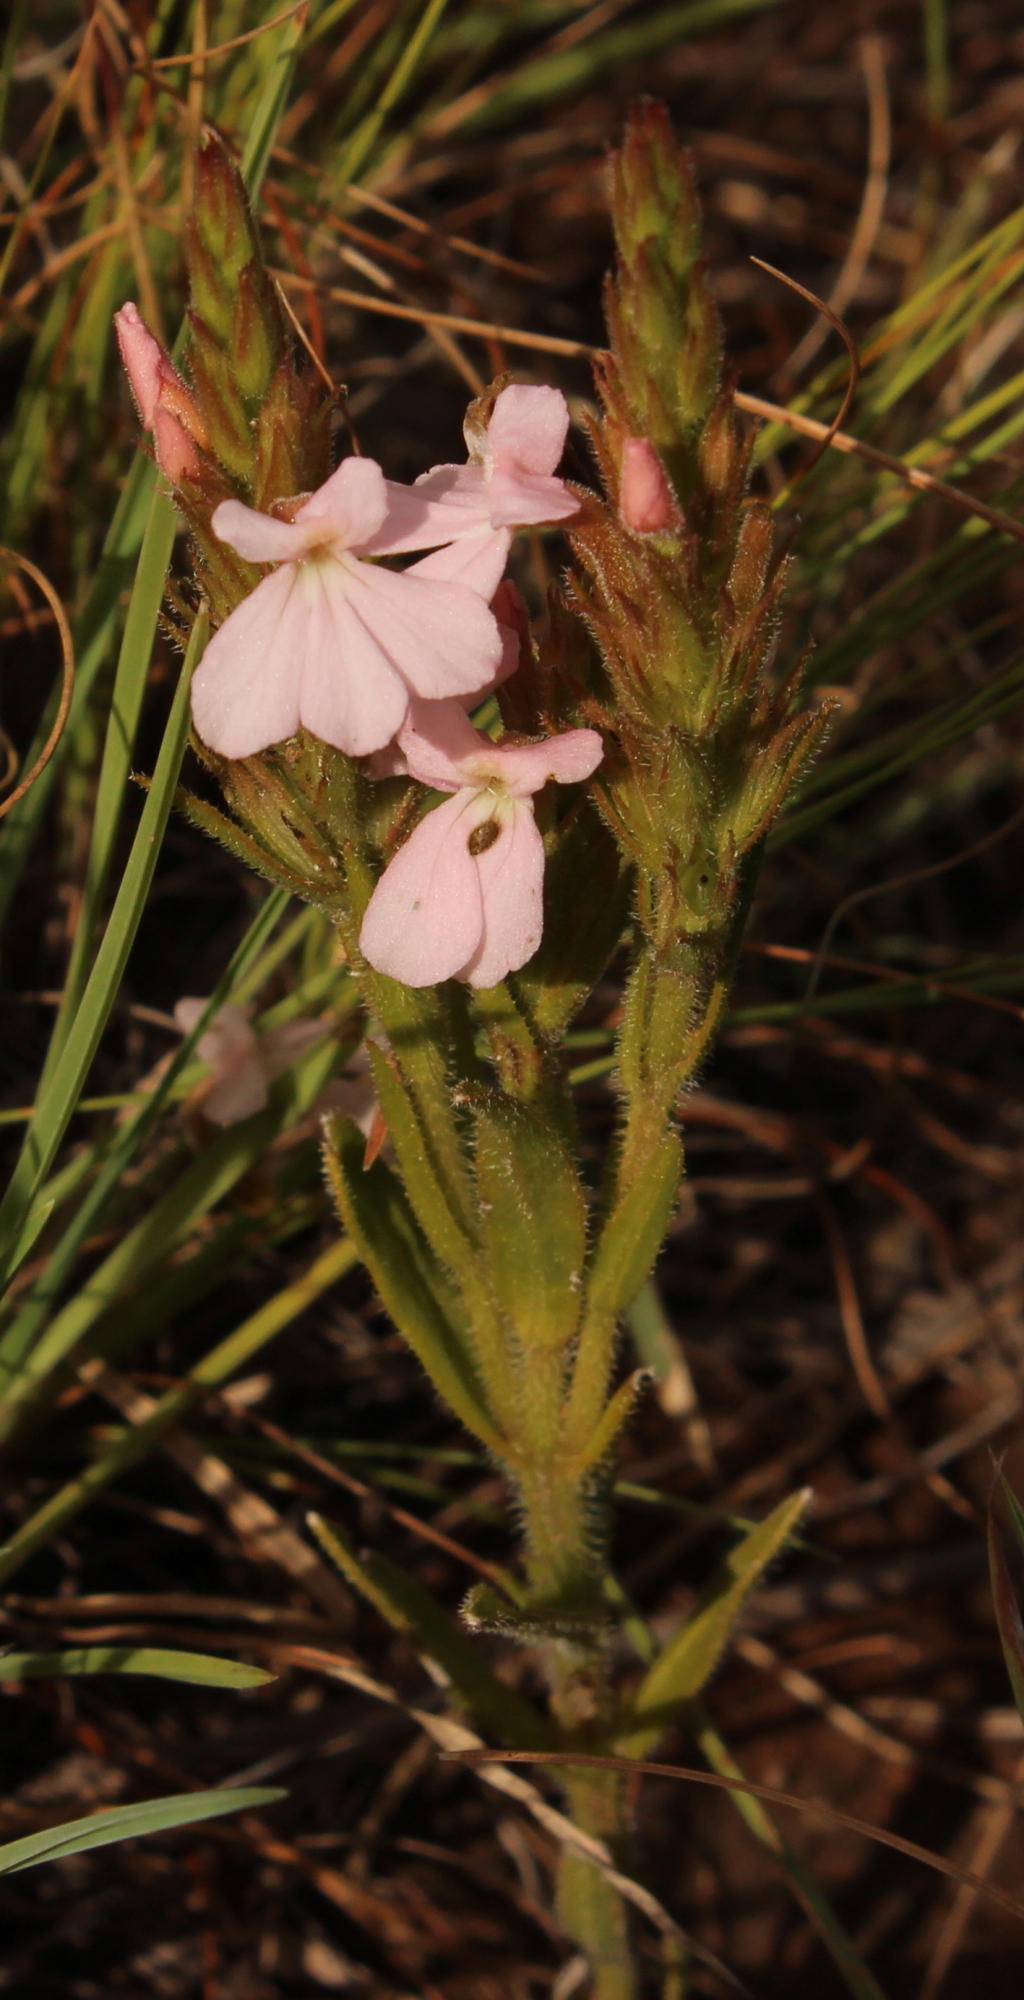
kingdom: Plantae
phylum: Tracheophyta
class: Magnoliopsida
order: Lamiales
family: Orobanchaceae
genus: Striga
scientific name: Striga elegans
